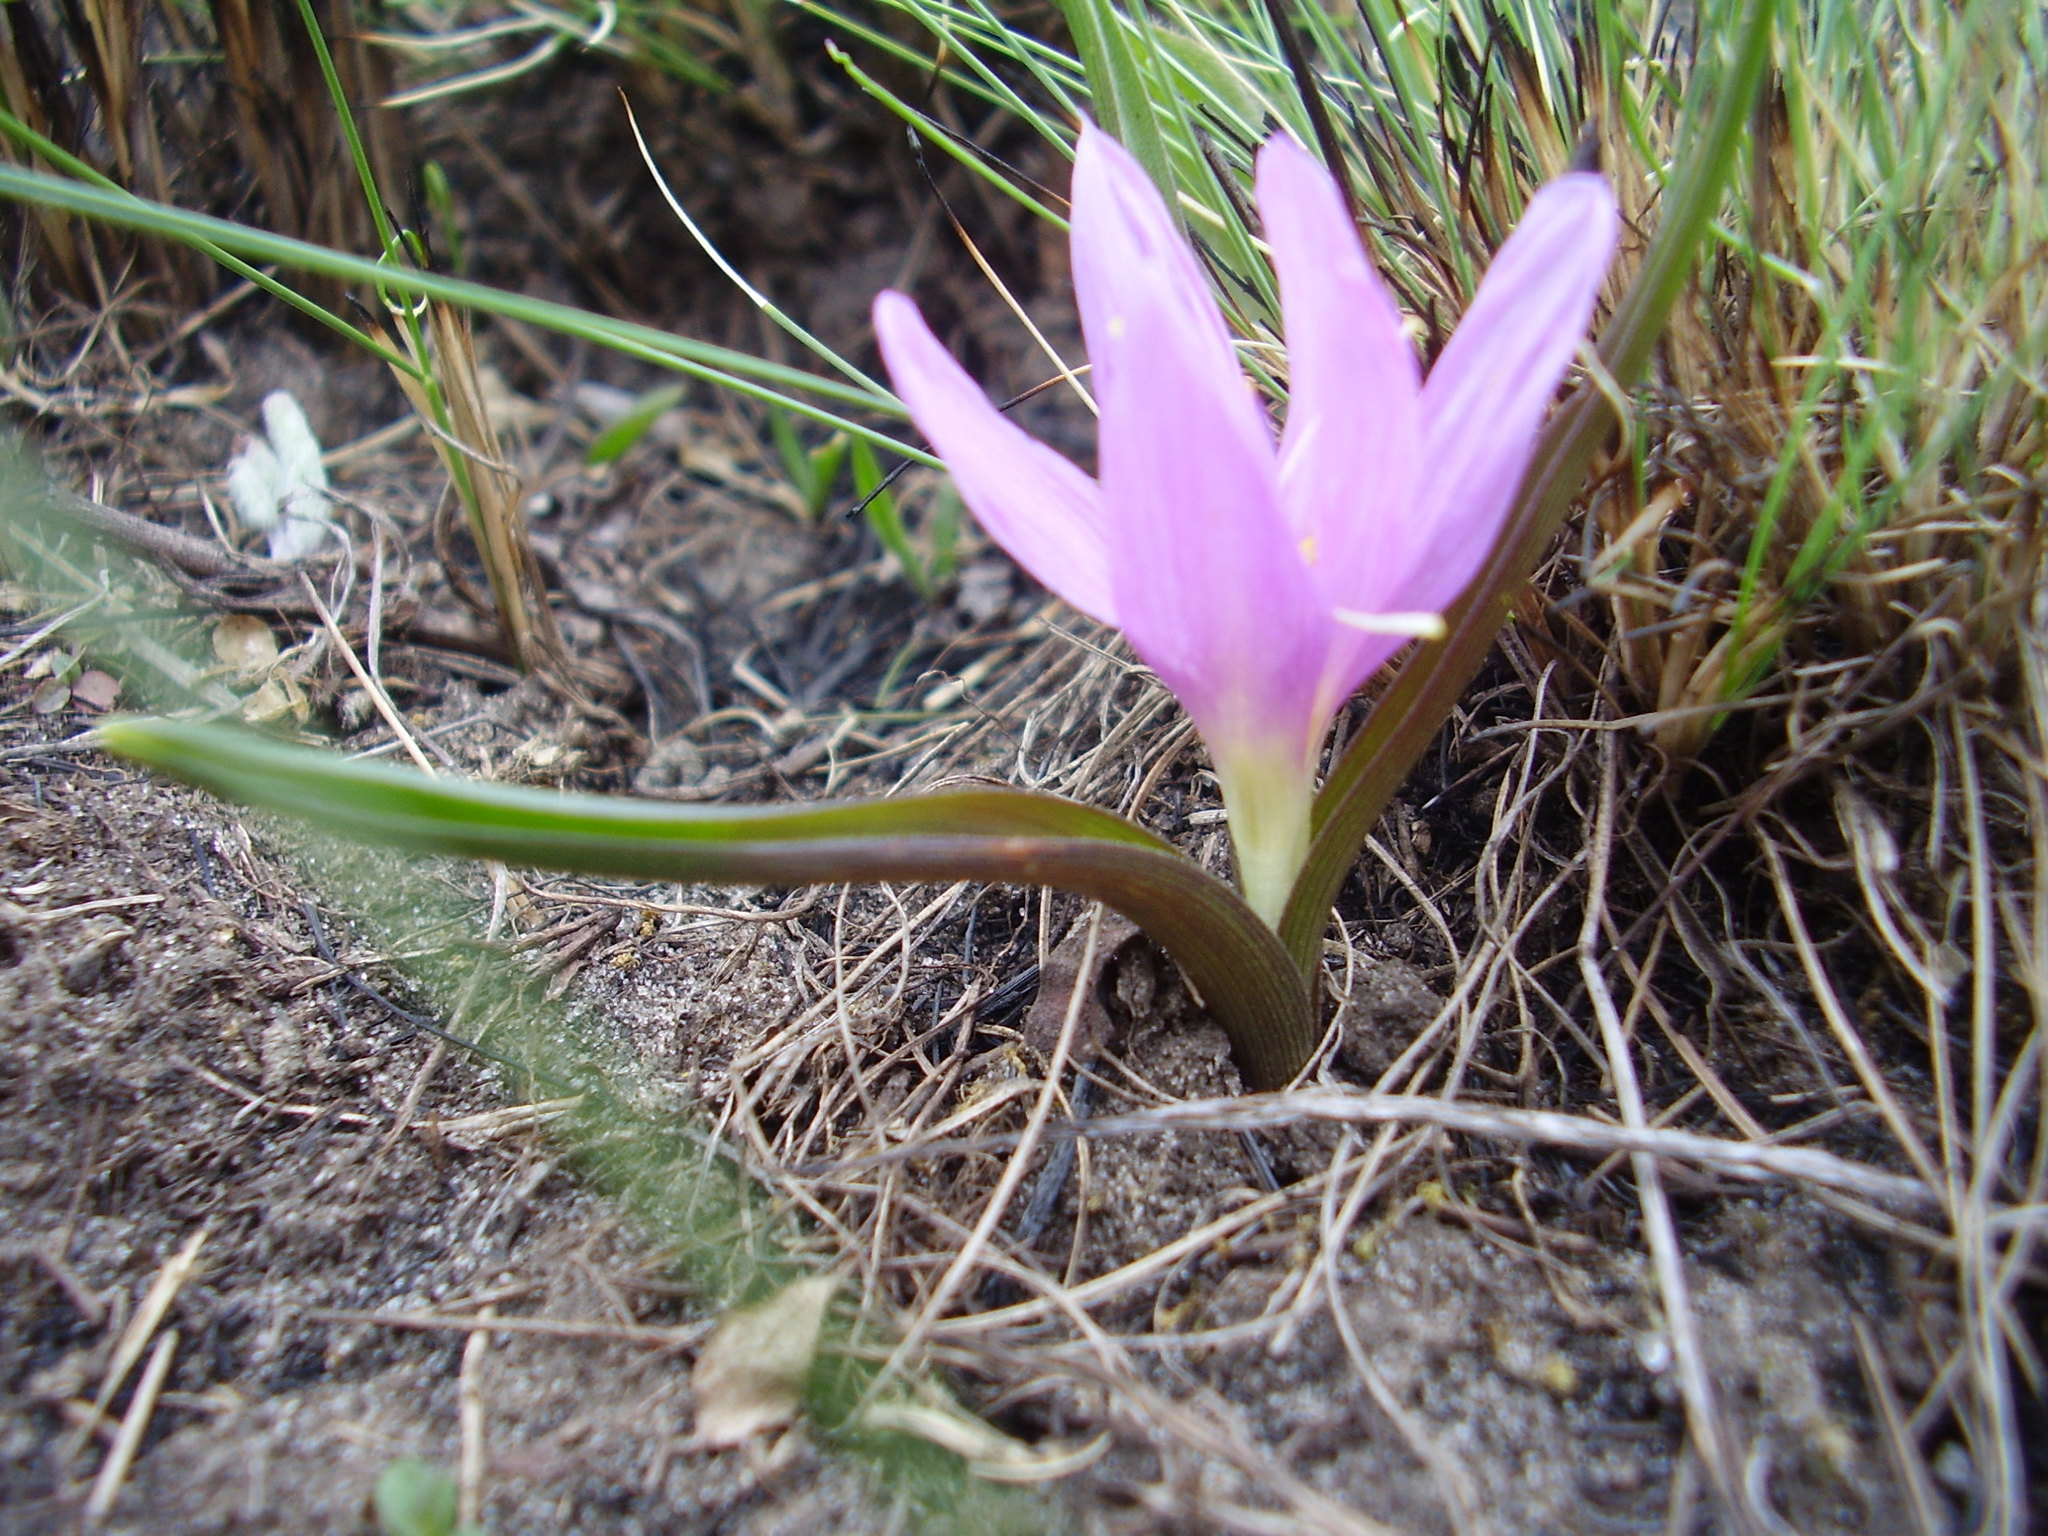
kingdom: Plantae
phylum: Tracheophyta
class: Liliopsida
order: Liliales
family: Colchicaceae
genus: Colchicum
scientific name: Colchicum bulbocodium
